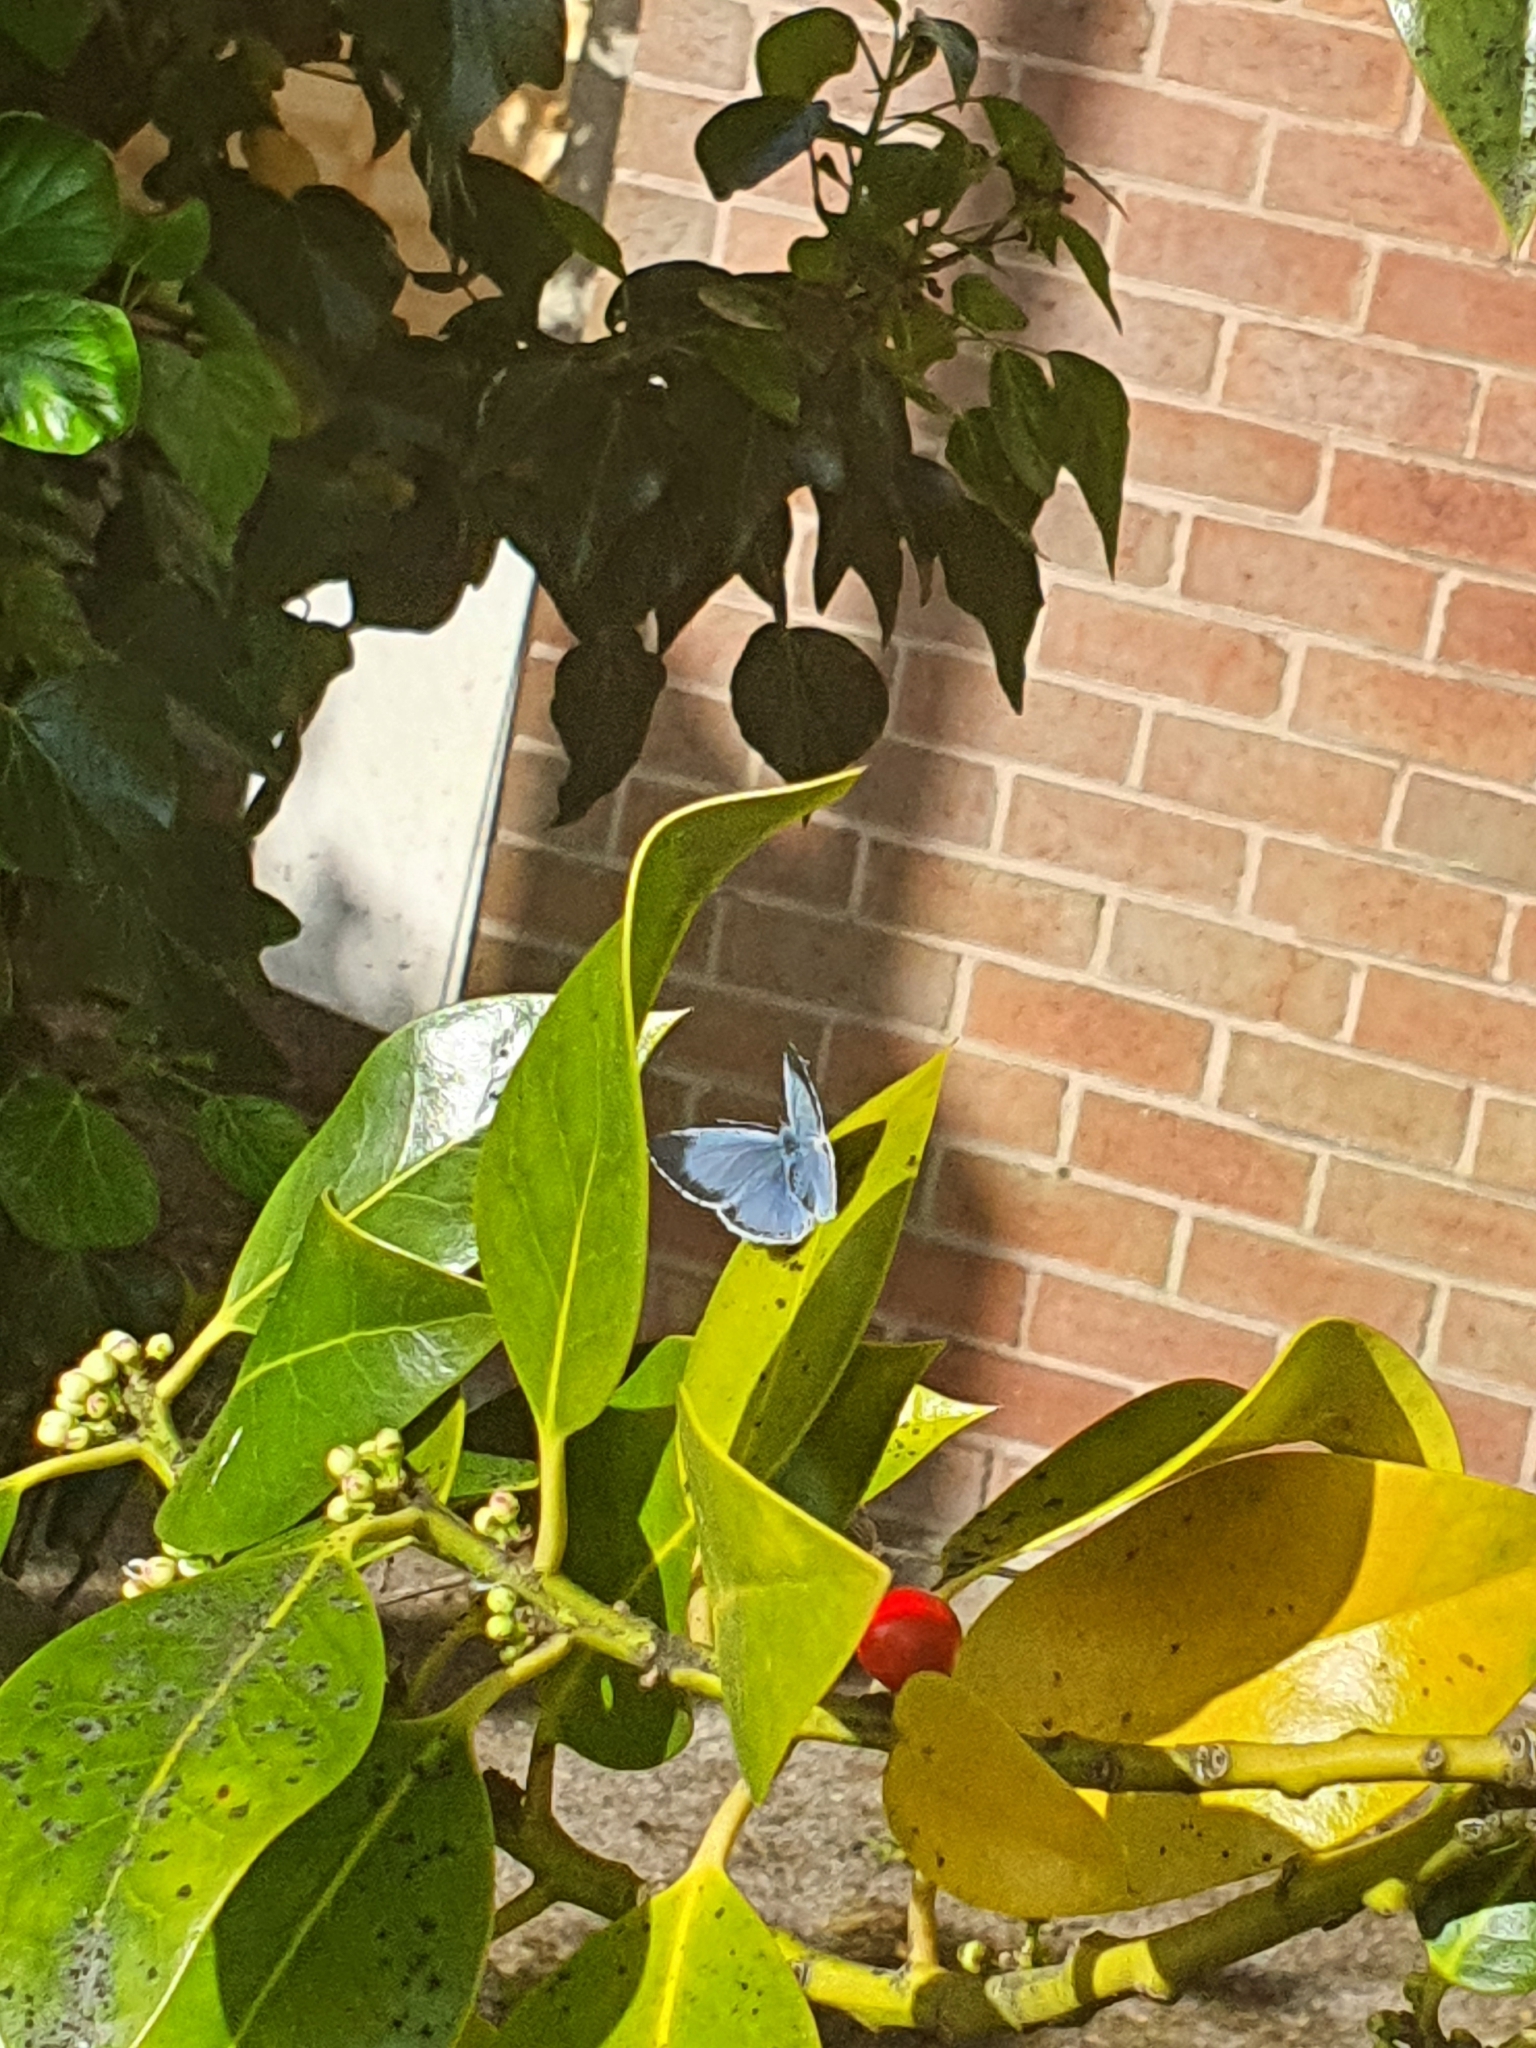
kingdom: Animalia
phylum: Arthropoda
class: Insecta
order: Lepidoptera
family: Lycaenidae
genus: Celastrina
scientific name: Celastrina argiolus
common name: Holly blue
